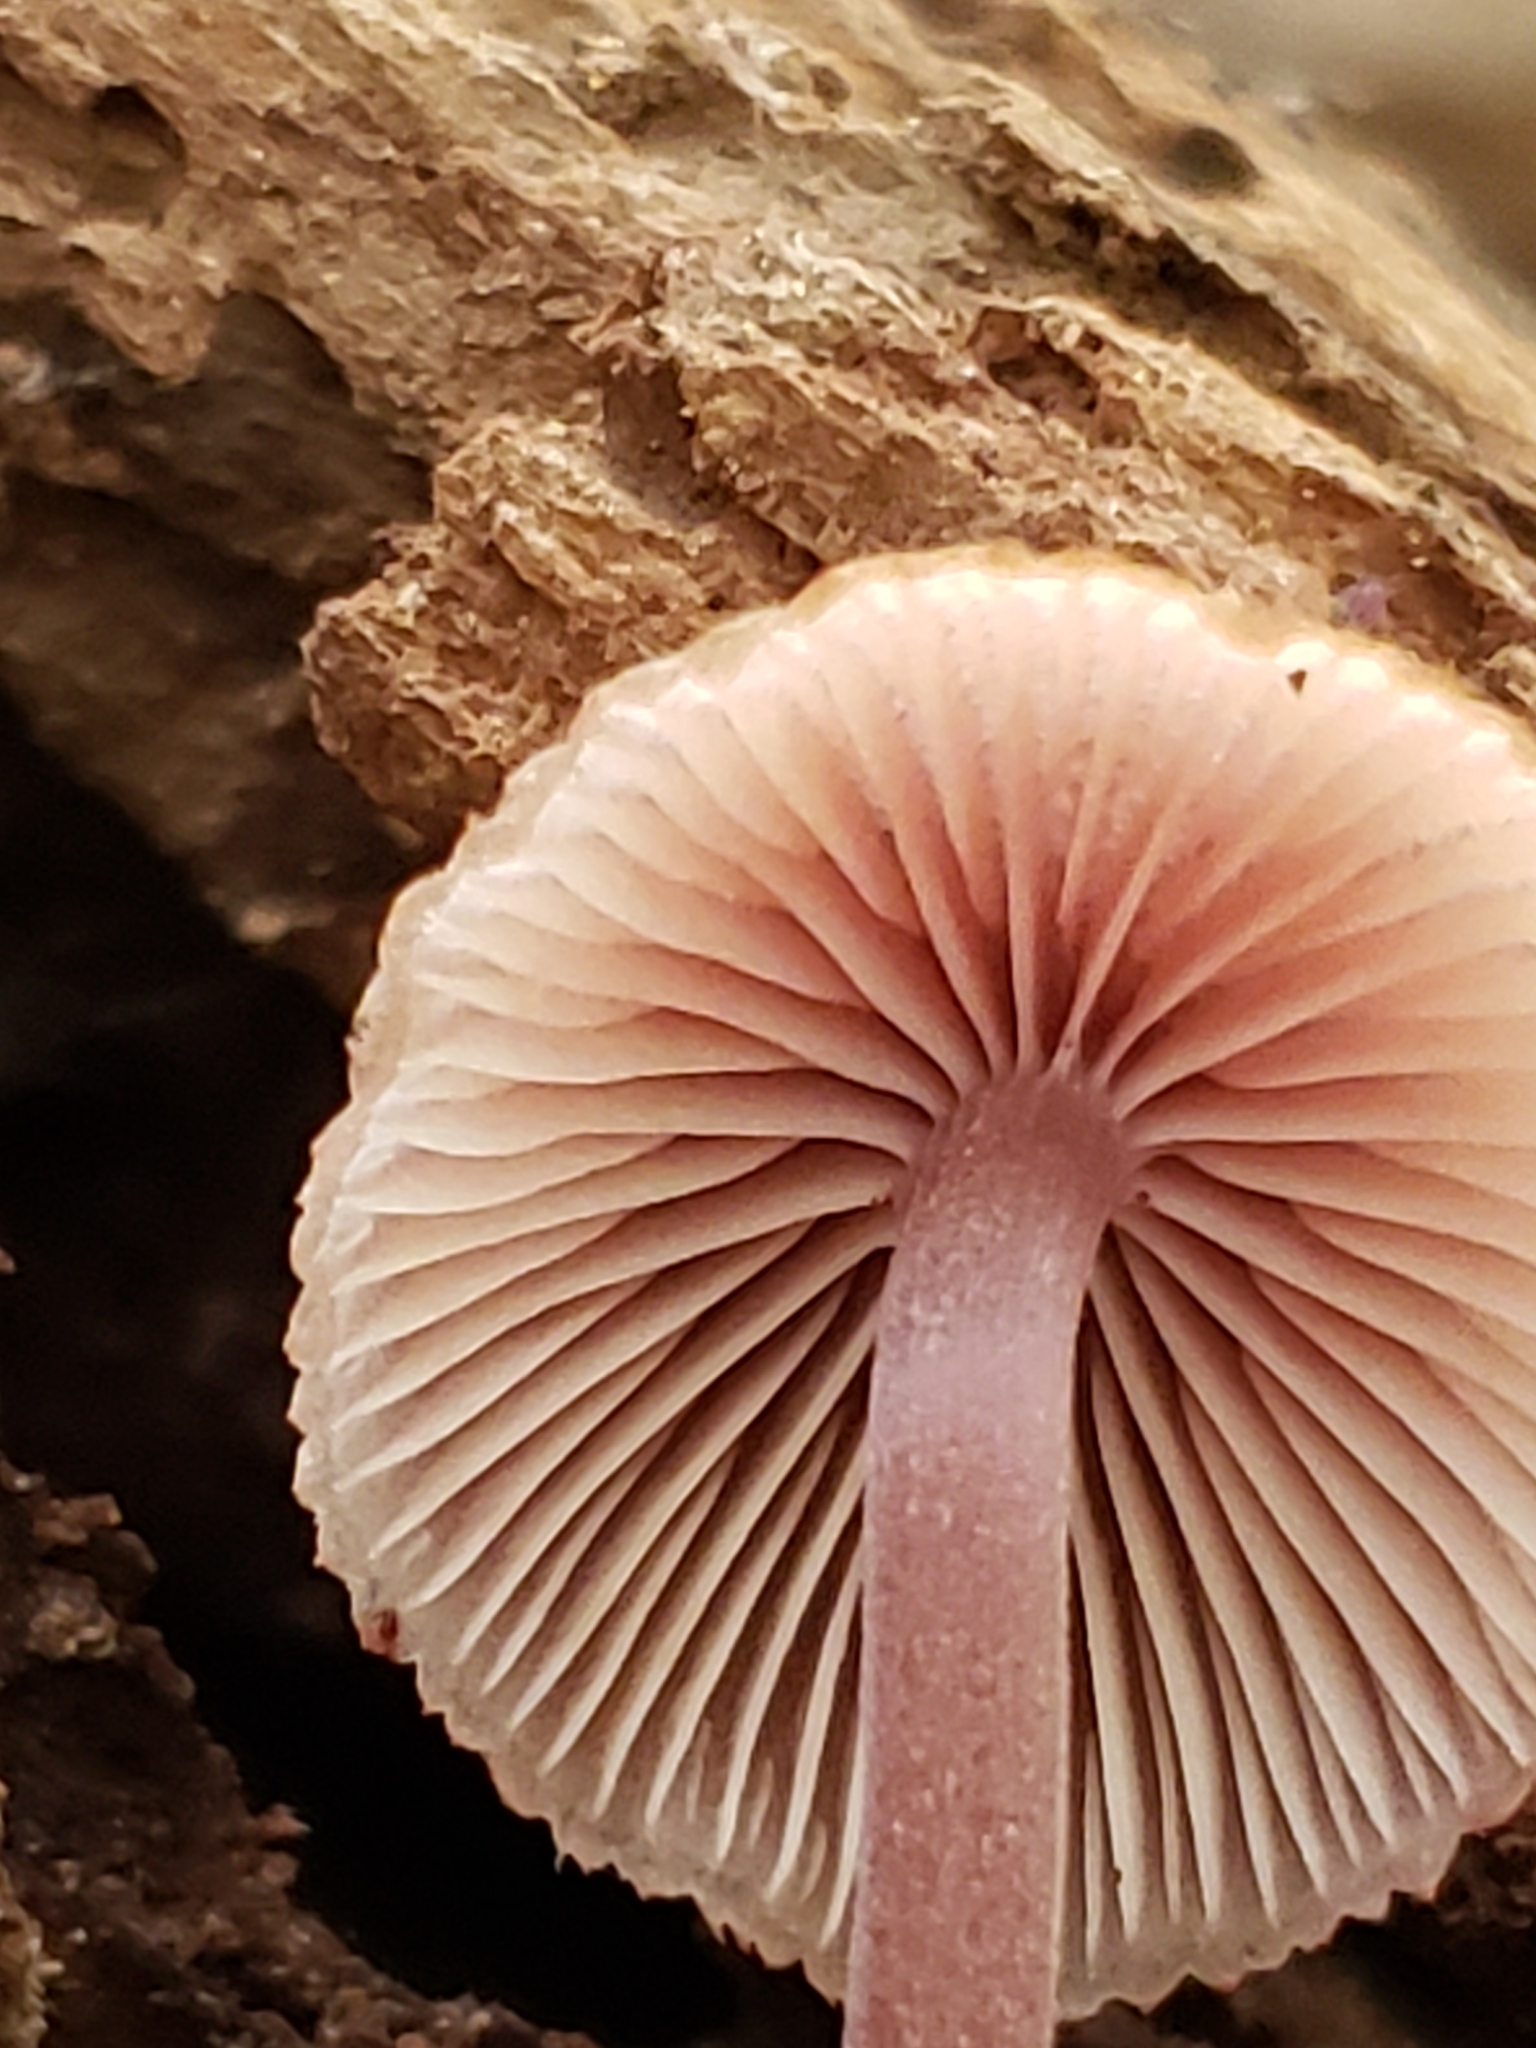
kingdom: Fungi
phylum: Basidiomycota
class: Agaricomycetes
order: Agaricales
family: Mycenaceae
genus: Mycena
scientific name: Mycena haematopus
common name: Burgundydrop bonnet
